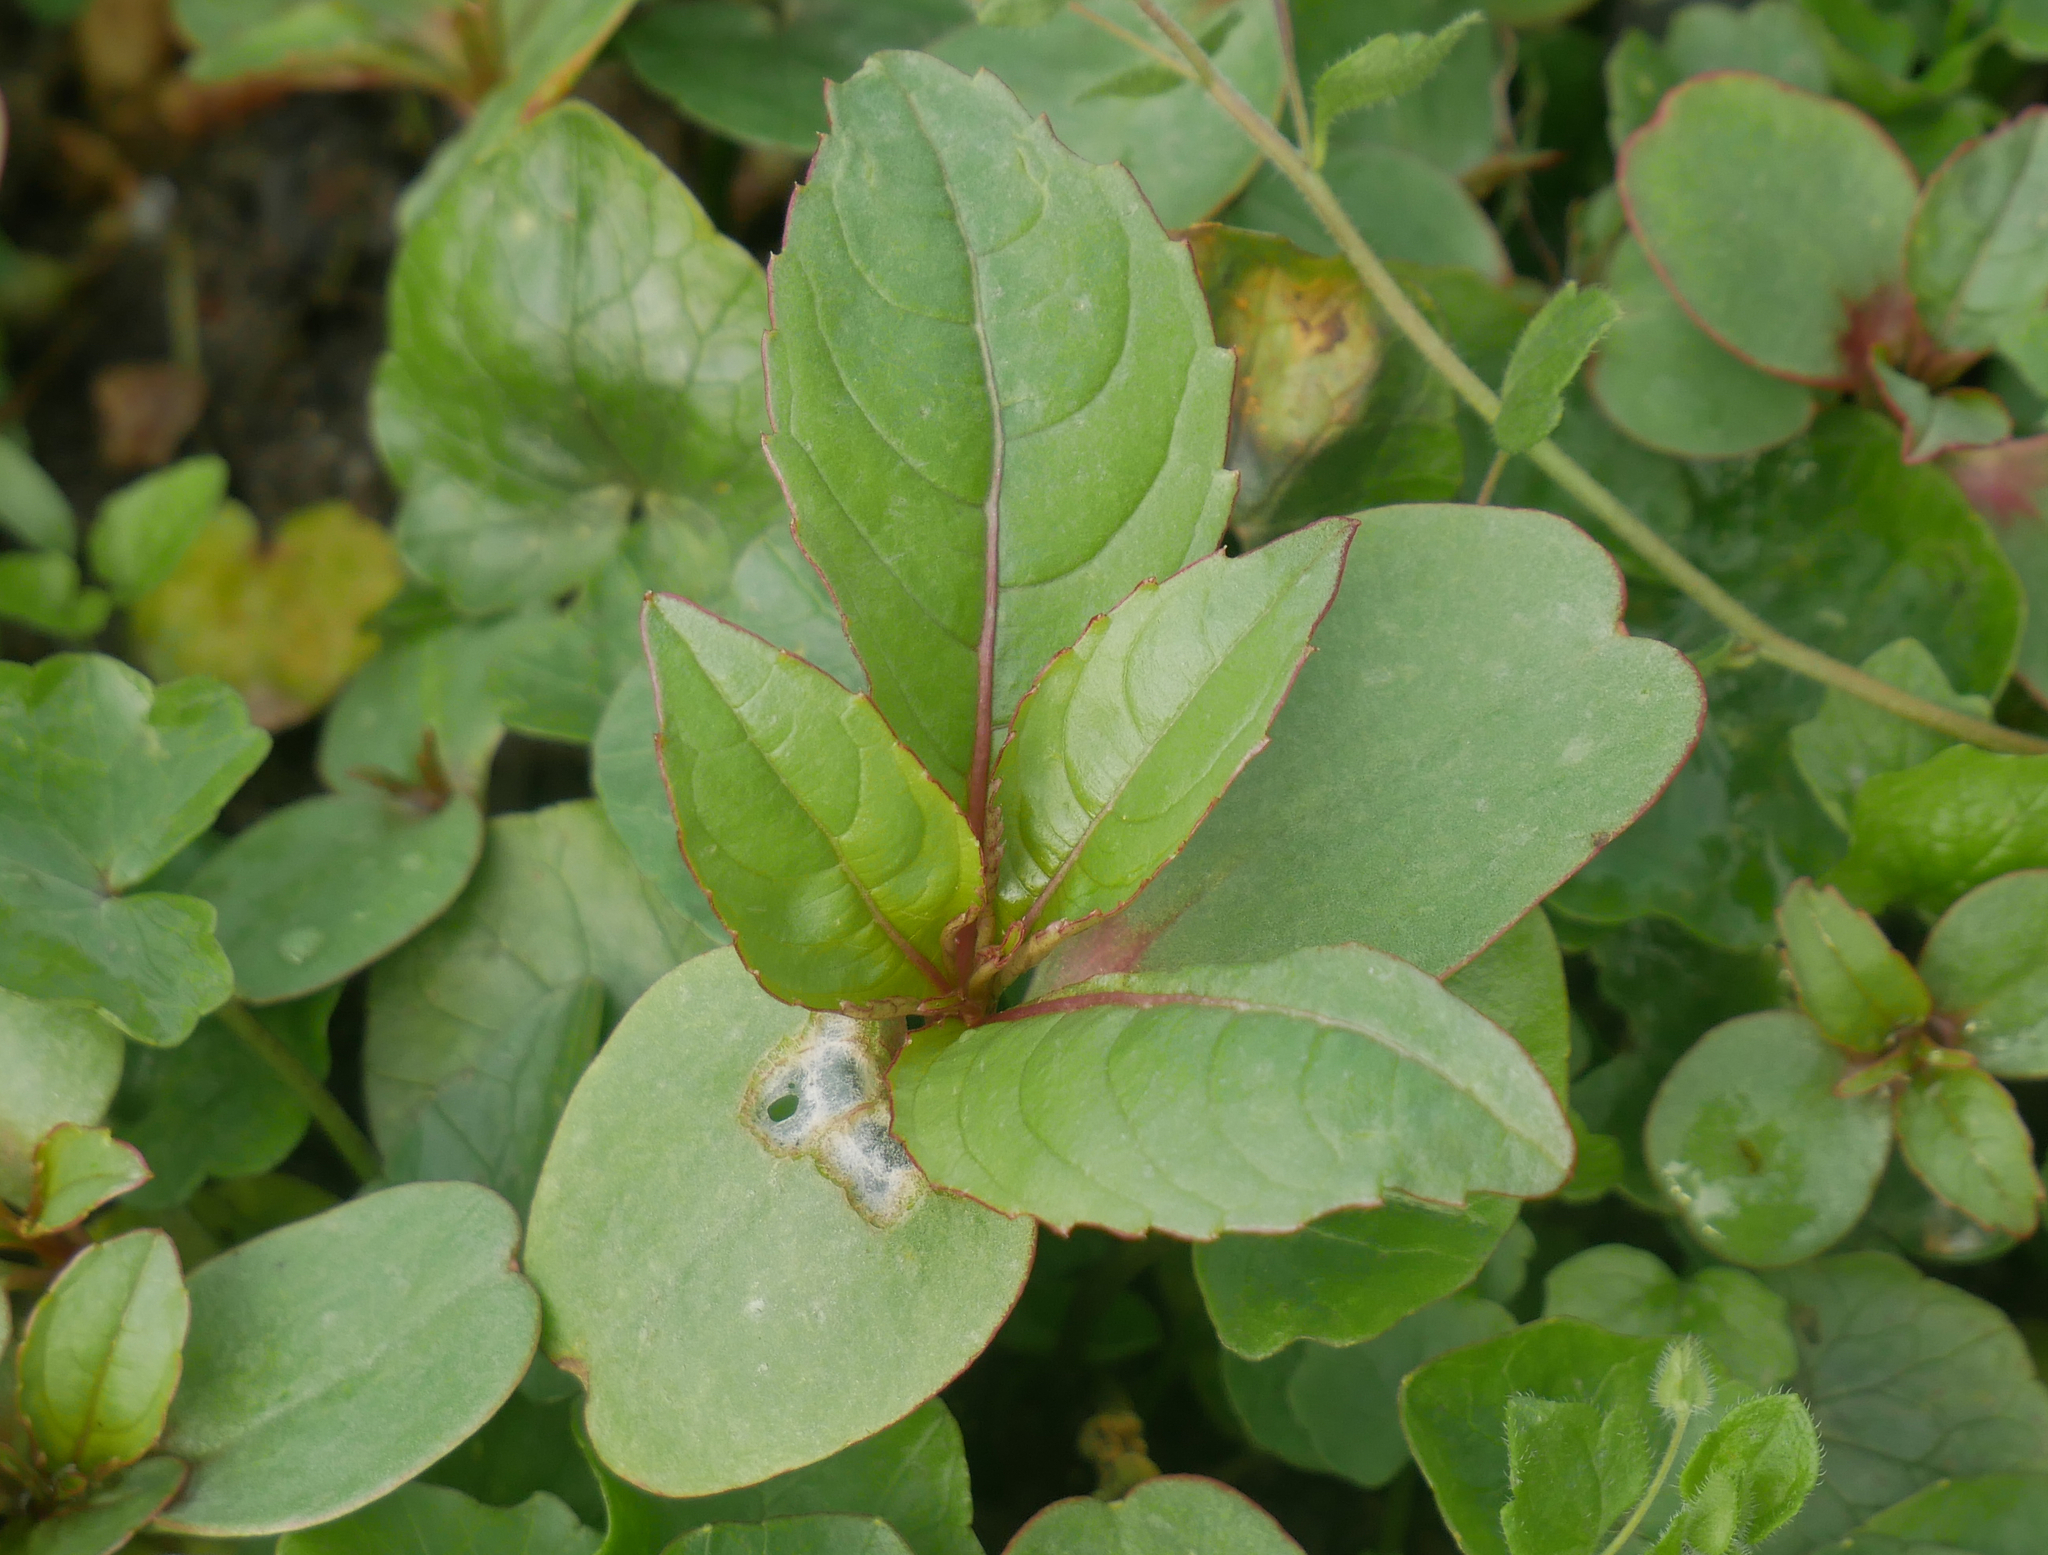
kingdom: Plantae
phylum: Tracheophyta
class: Magnoliopsida
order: Ericales
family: Balsaminaceae
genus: Impatiens
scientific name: Impatiens glandulifera
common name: Himalayan balsam
